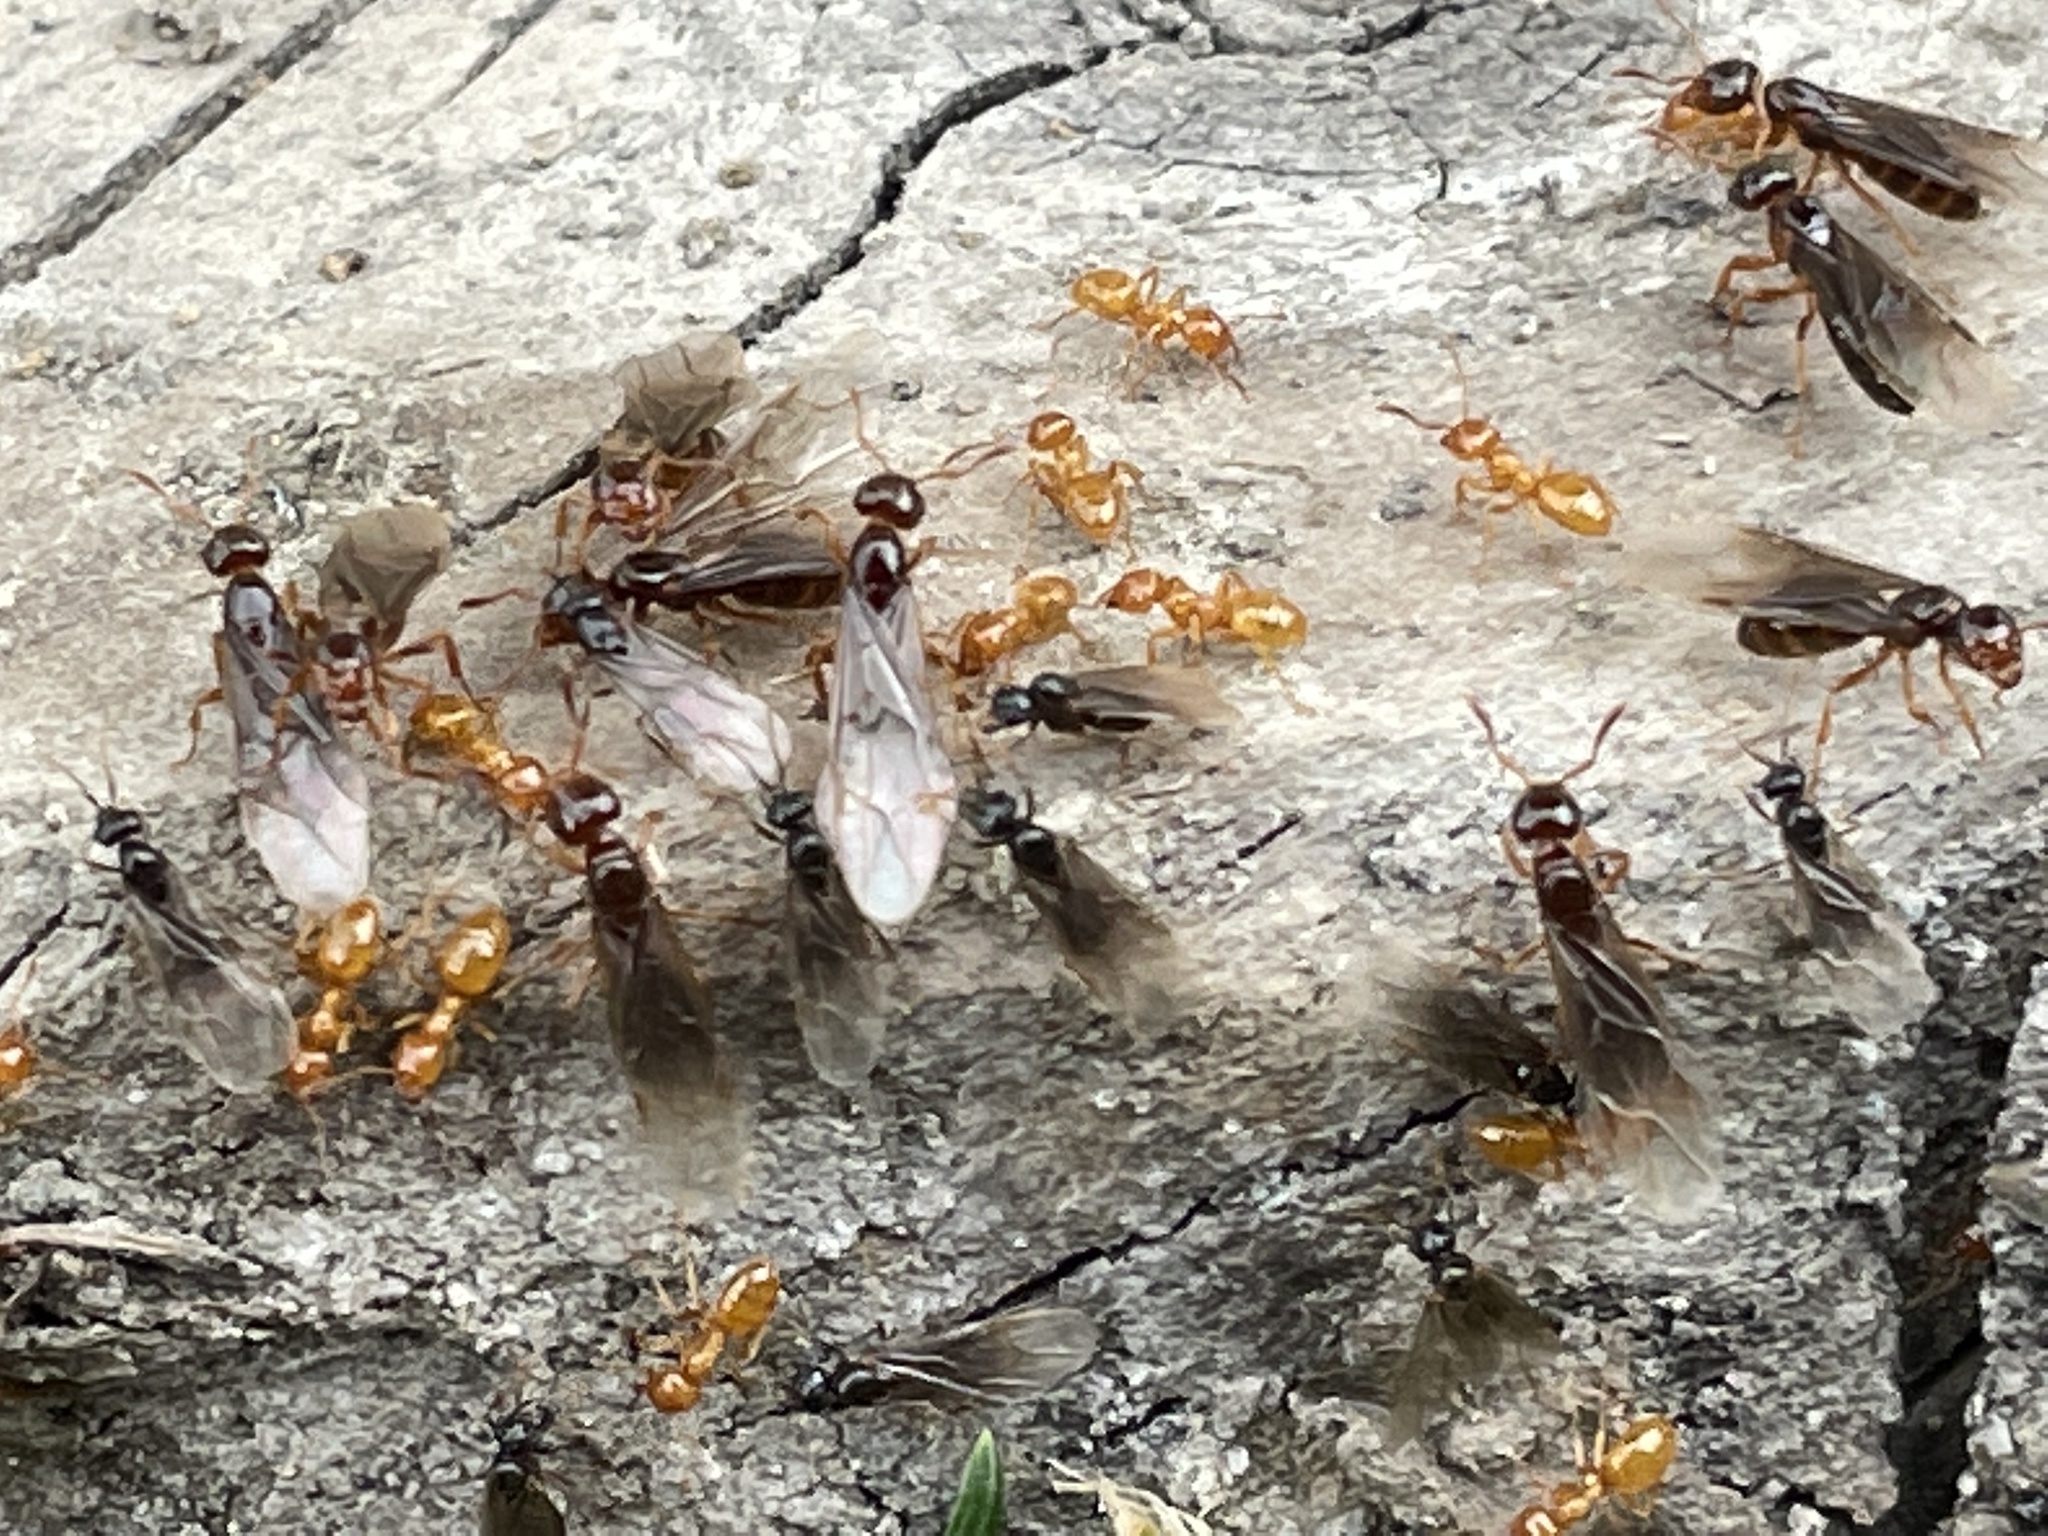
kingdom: Animalia
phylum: Arthropoda
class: Insecta
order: Hymenoptera
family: Formicidae
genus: Lasius
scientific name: Lasius claviger
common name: Common citronella ant
